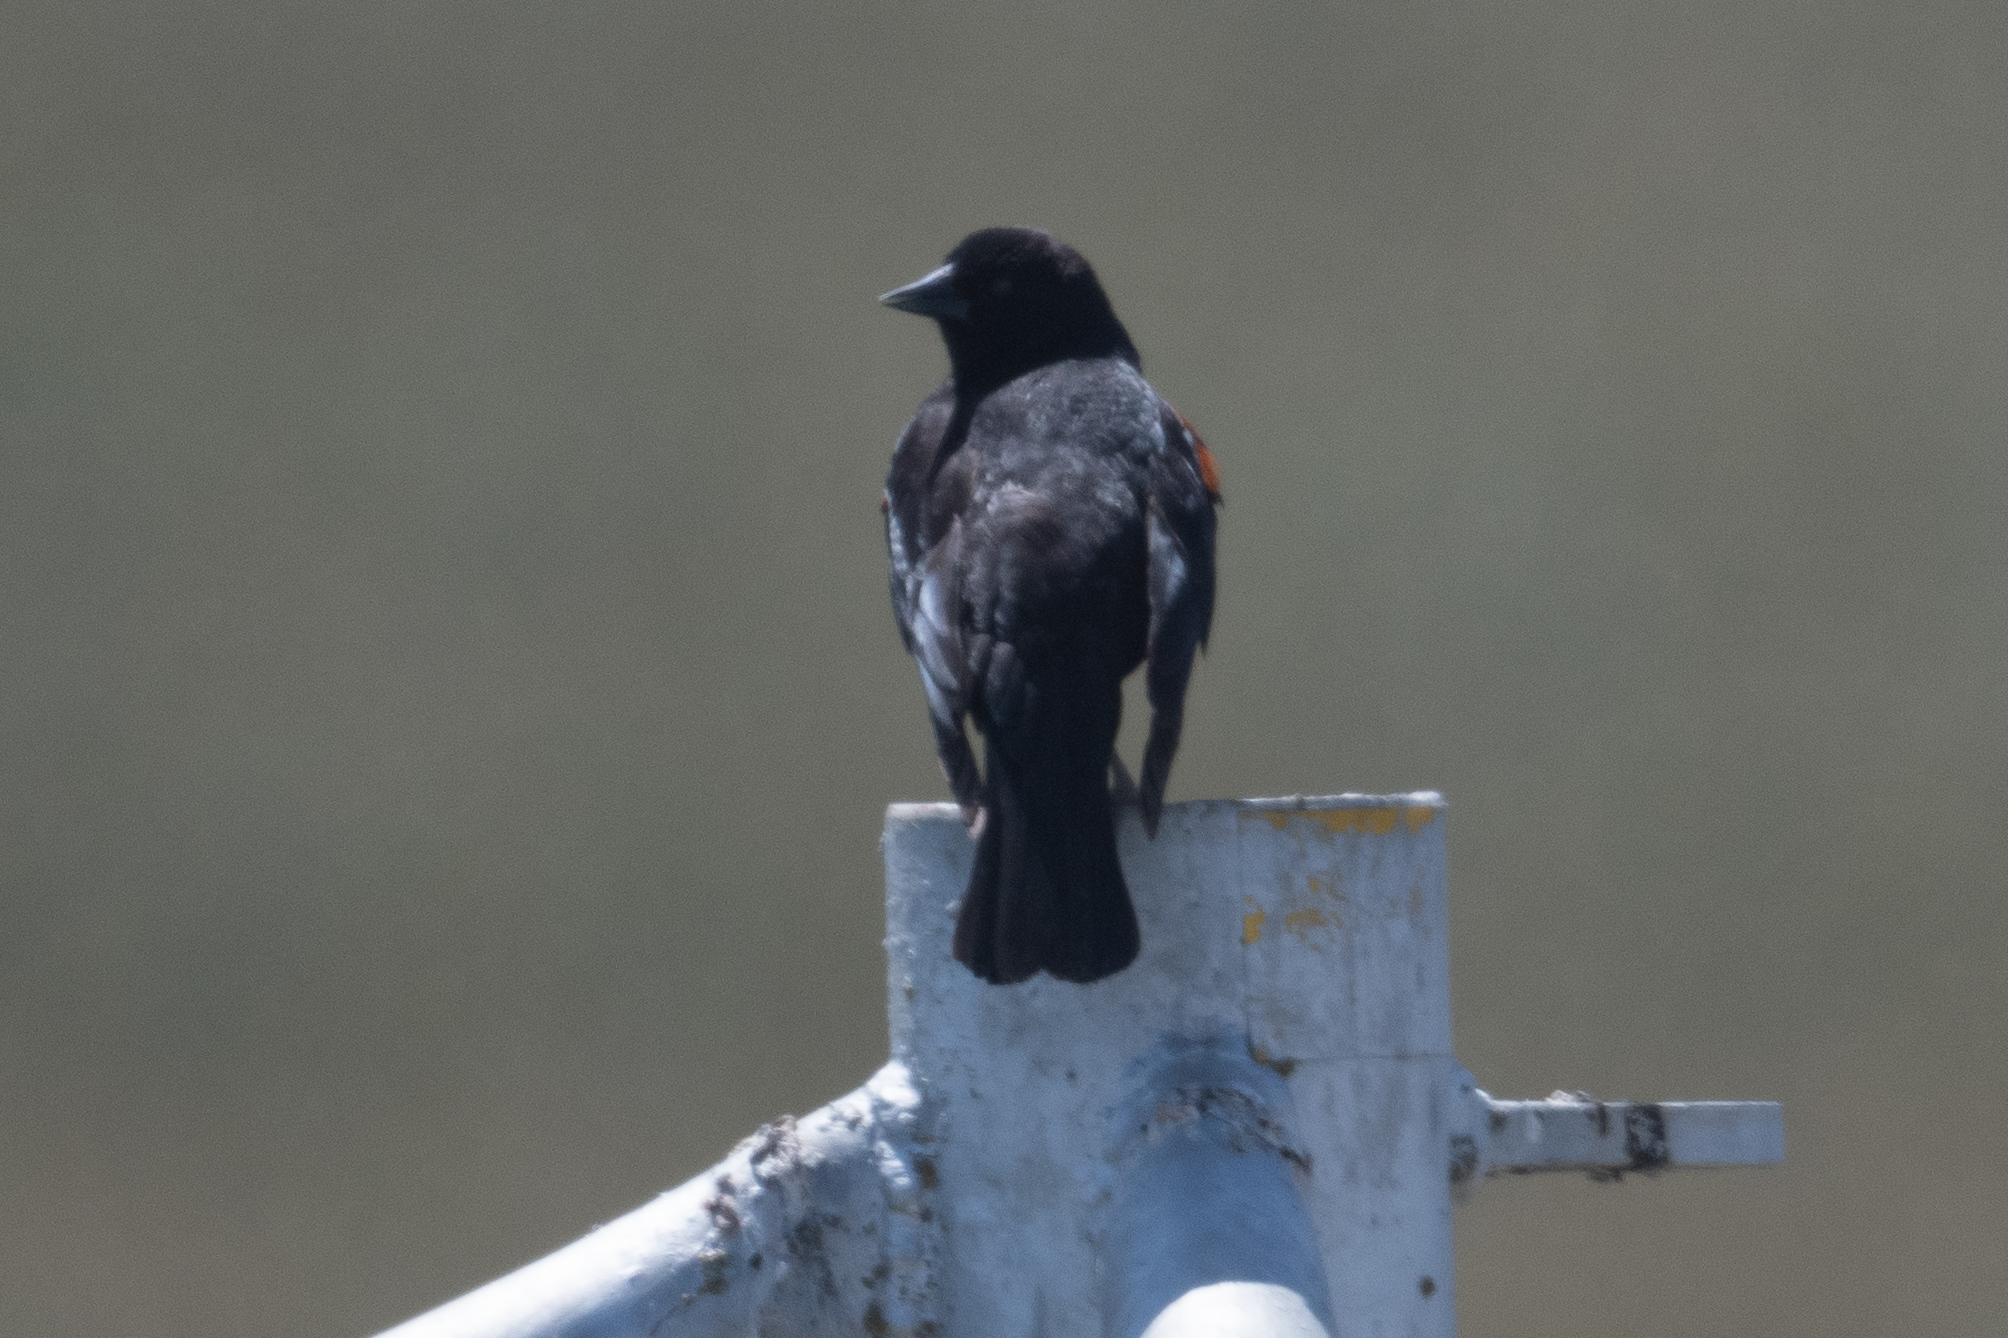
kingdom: Animalia
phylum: Chordata
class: Aves
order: Passeriformes
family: Icteridae
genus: Agelaius
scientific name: Agelaius phoeniceus
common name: Red-winged blackbird
